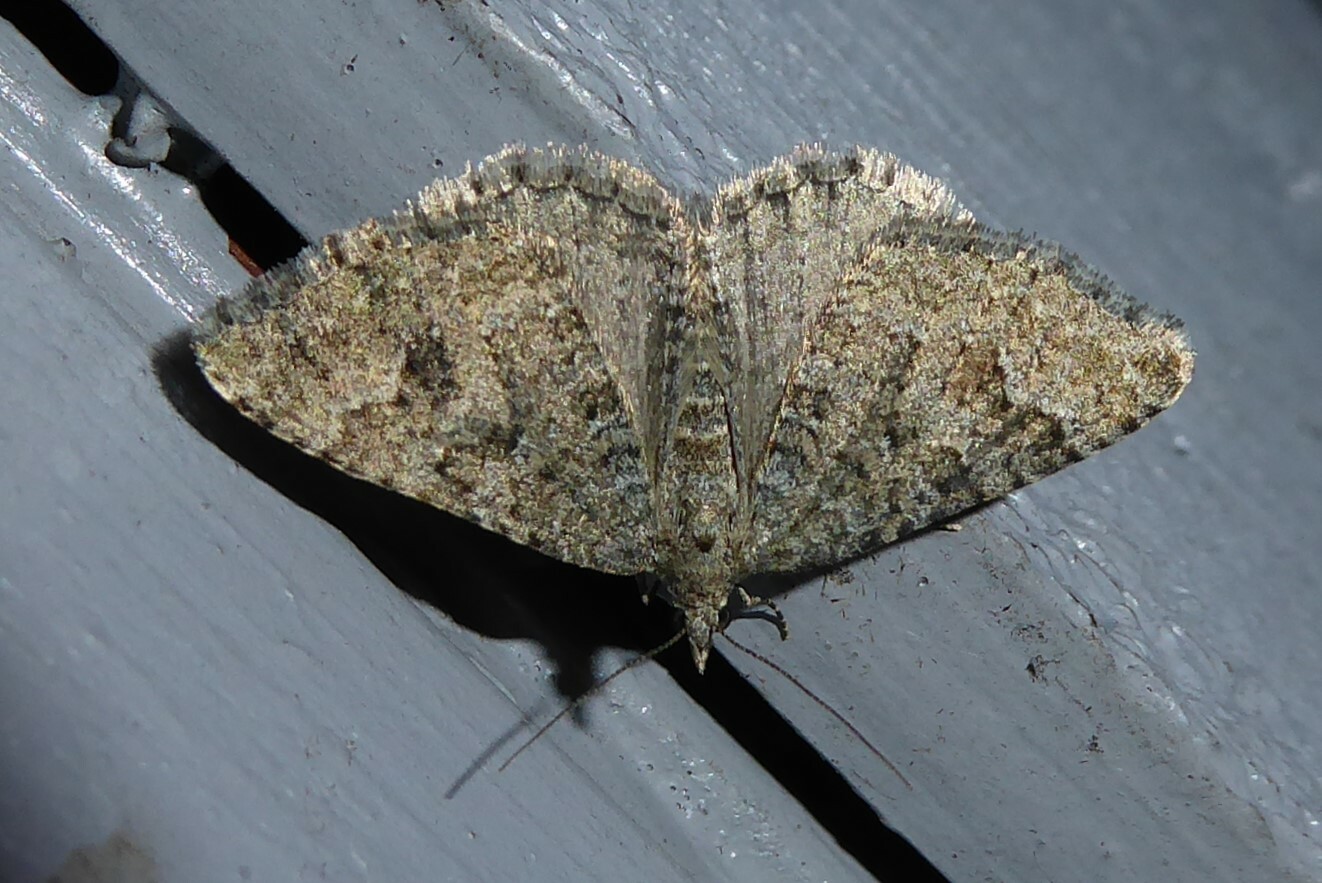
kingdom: Animalia
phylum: Arthropoda
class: Insecta
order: Lepidoptera
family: Geometridae
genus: Helastia
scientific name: Helastia corcularia
